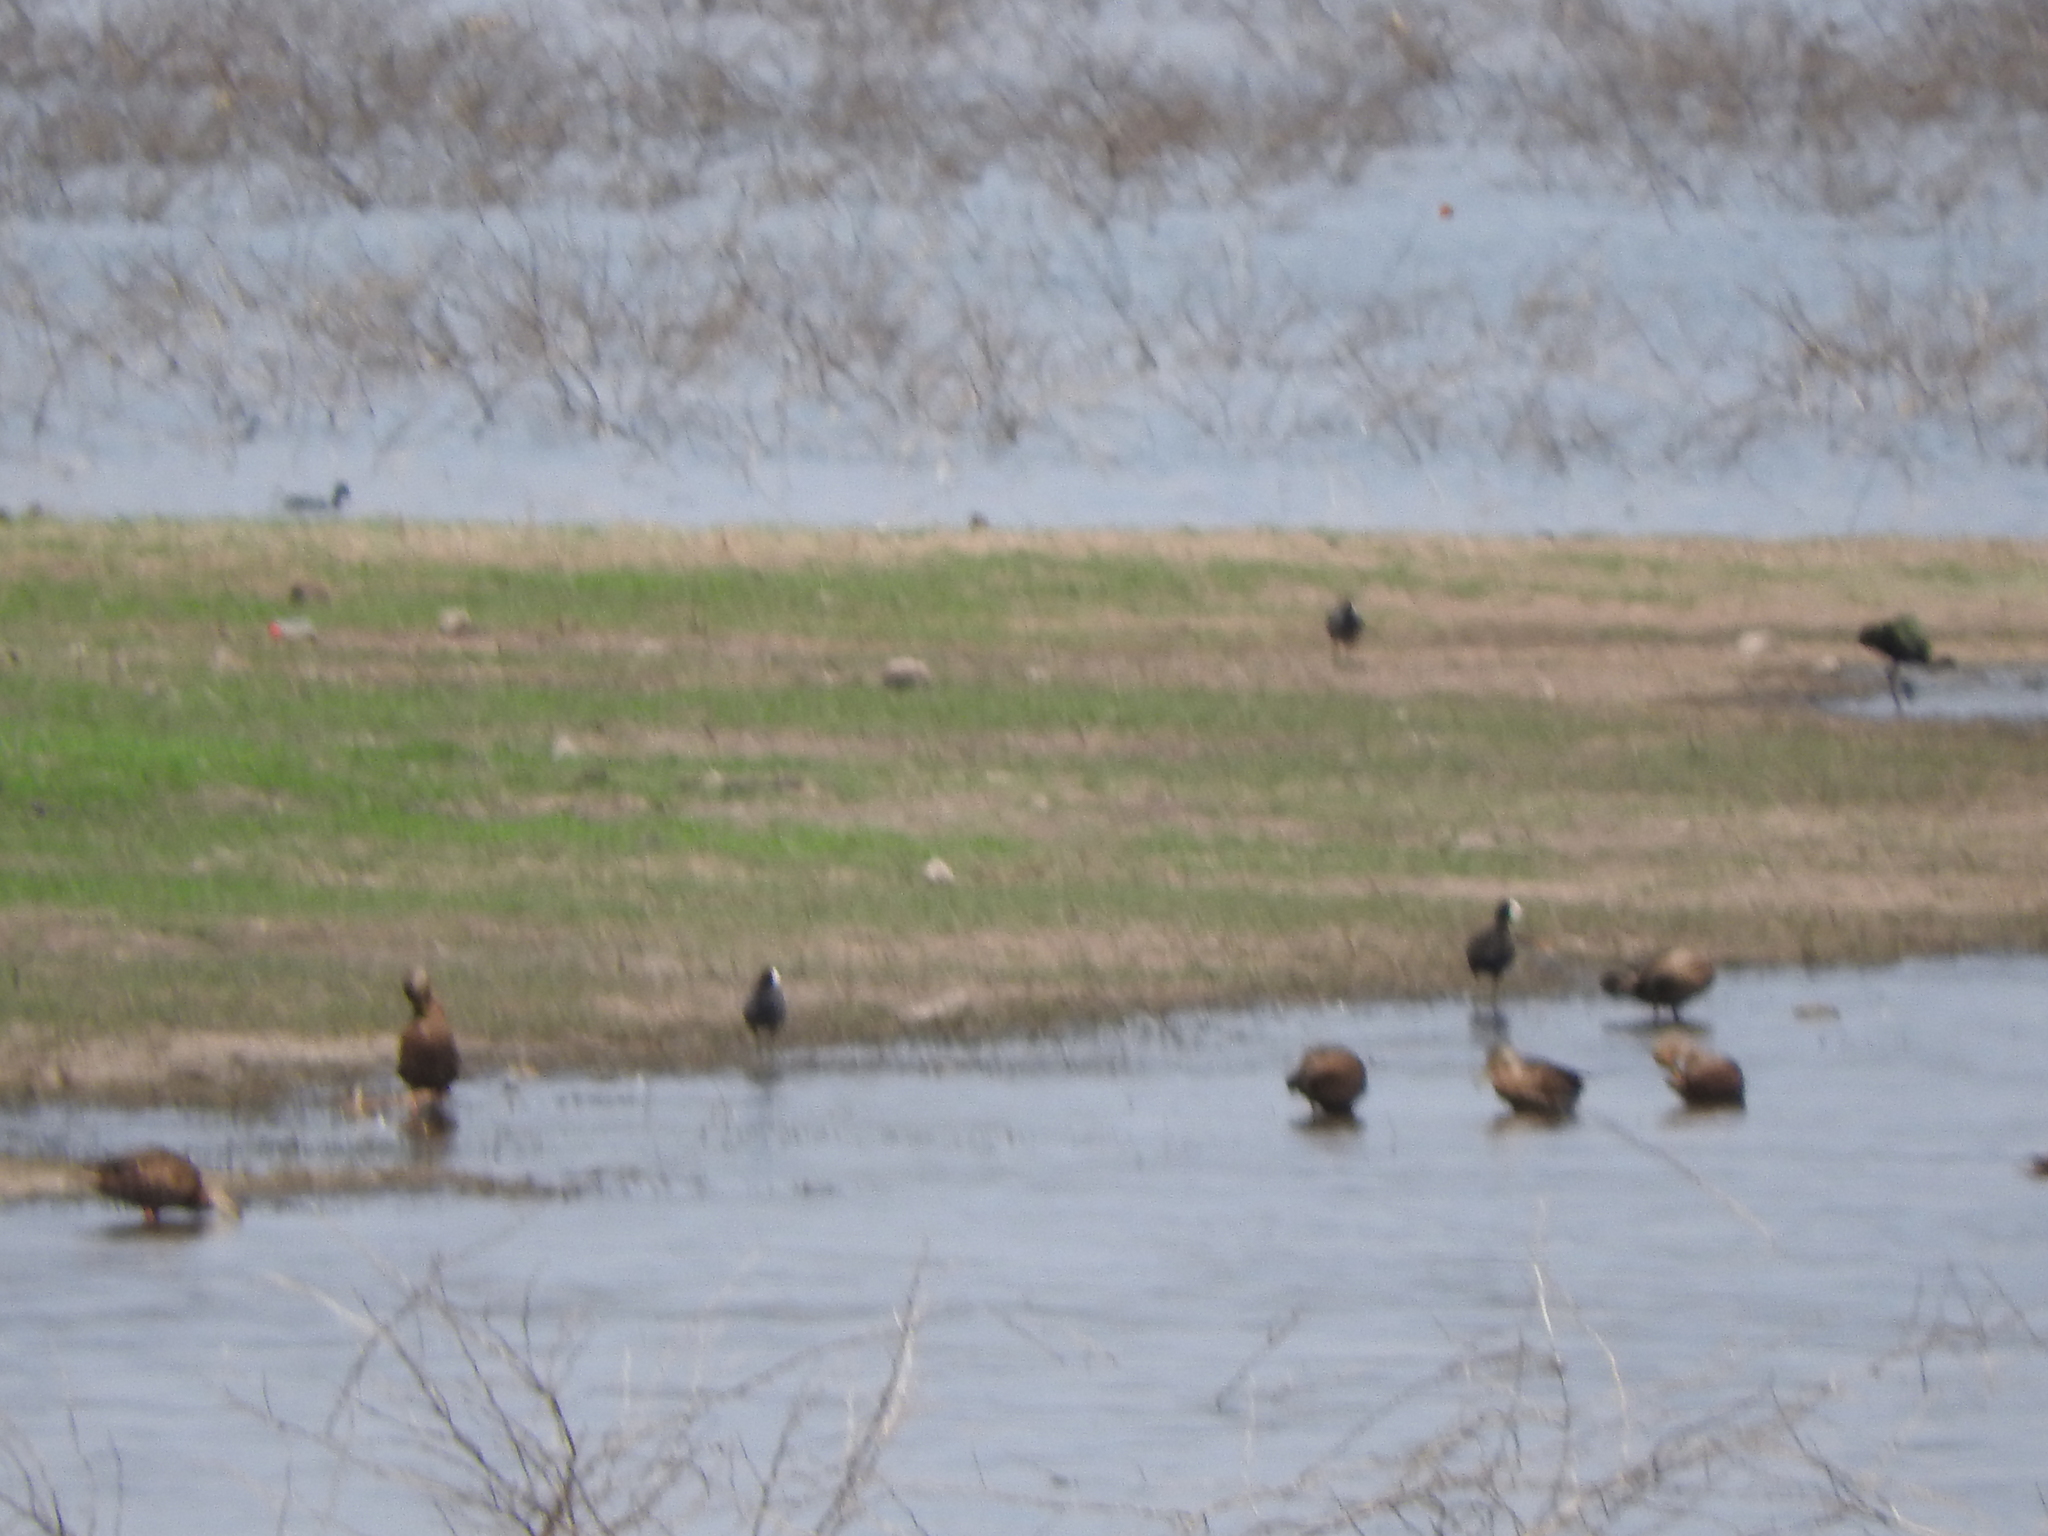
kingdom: Animalia
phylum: Chordata
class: Aves
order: Gruiformes
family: Rallidae
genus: Fulica
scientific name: Fulica americana
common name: American coot
